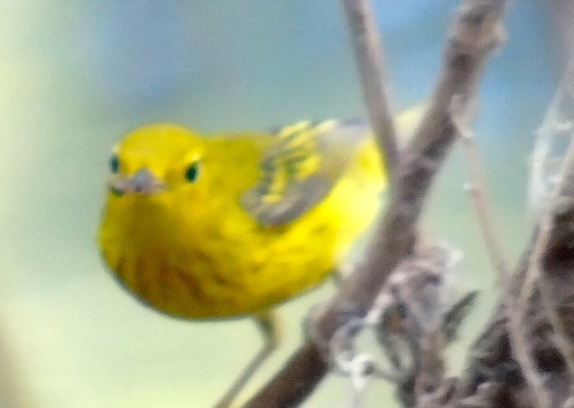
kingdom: Animalia
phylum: Chordata
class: Aves
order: Passeriformes
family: Parulidae
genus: Setophaga
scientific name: Setophaga petechia
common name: Yellow warbler
